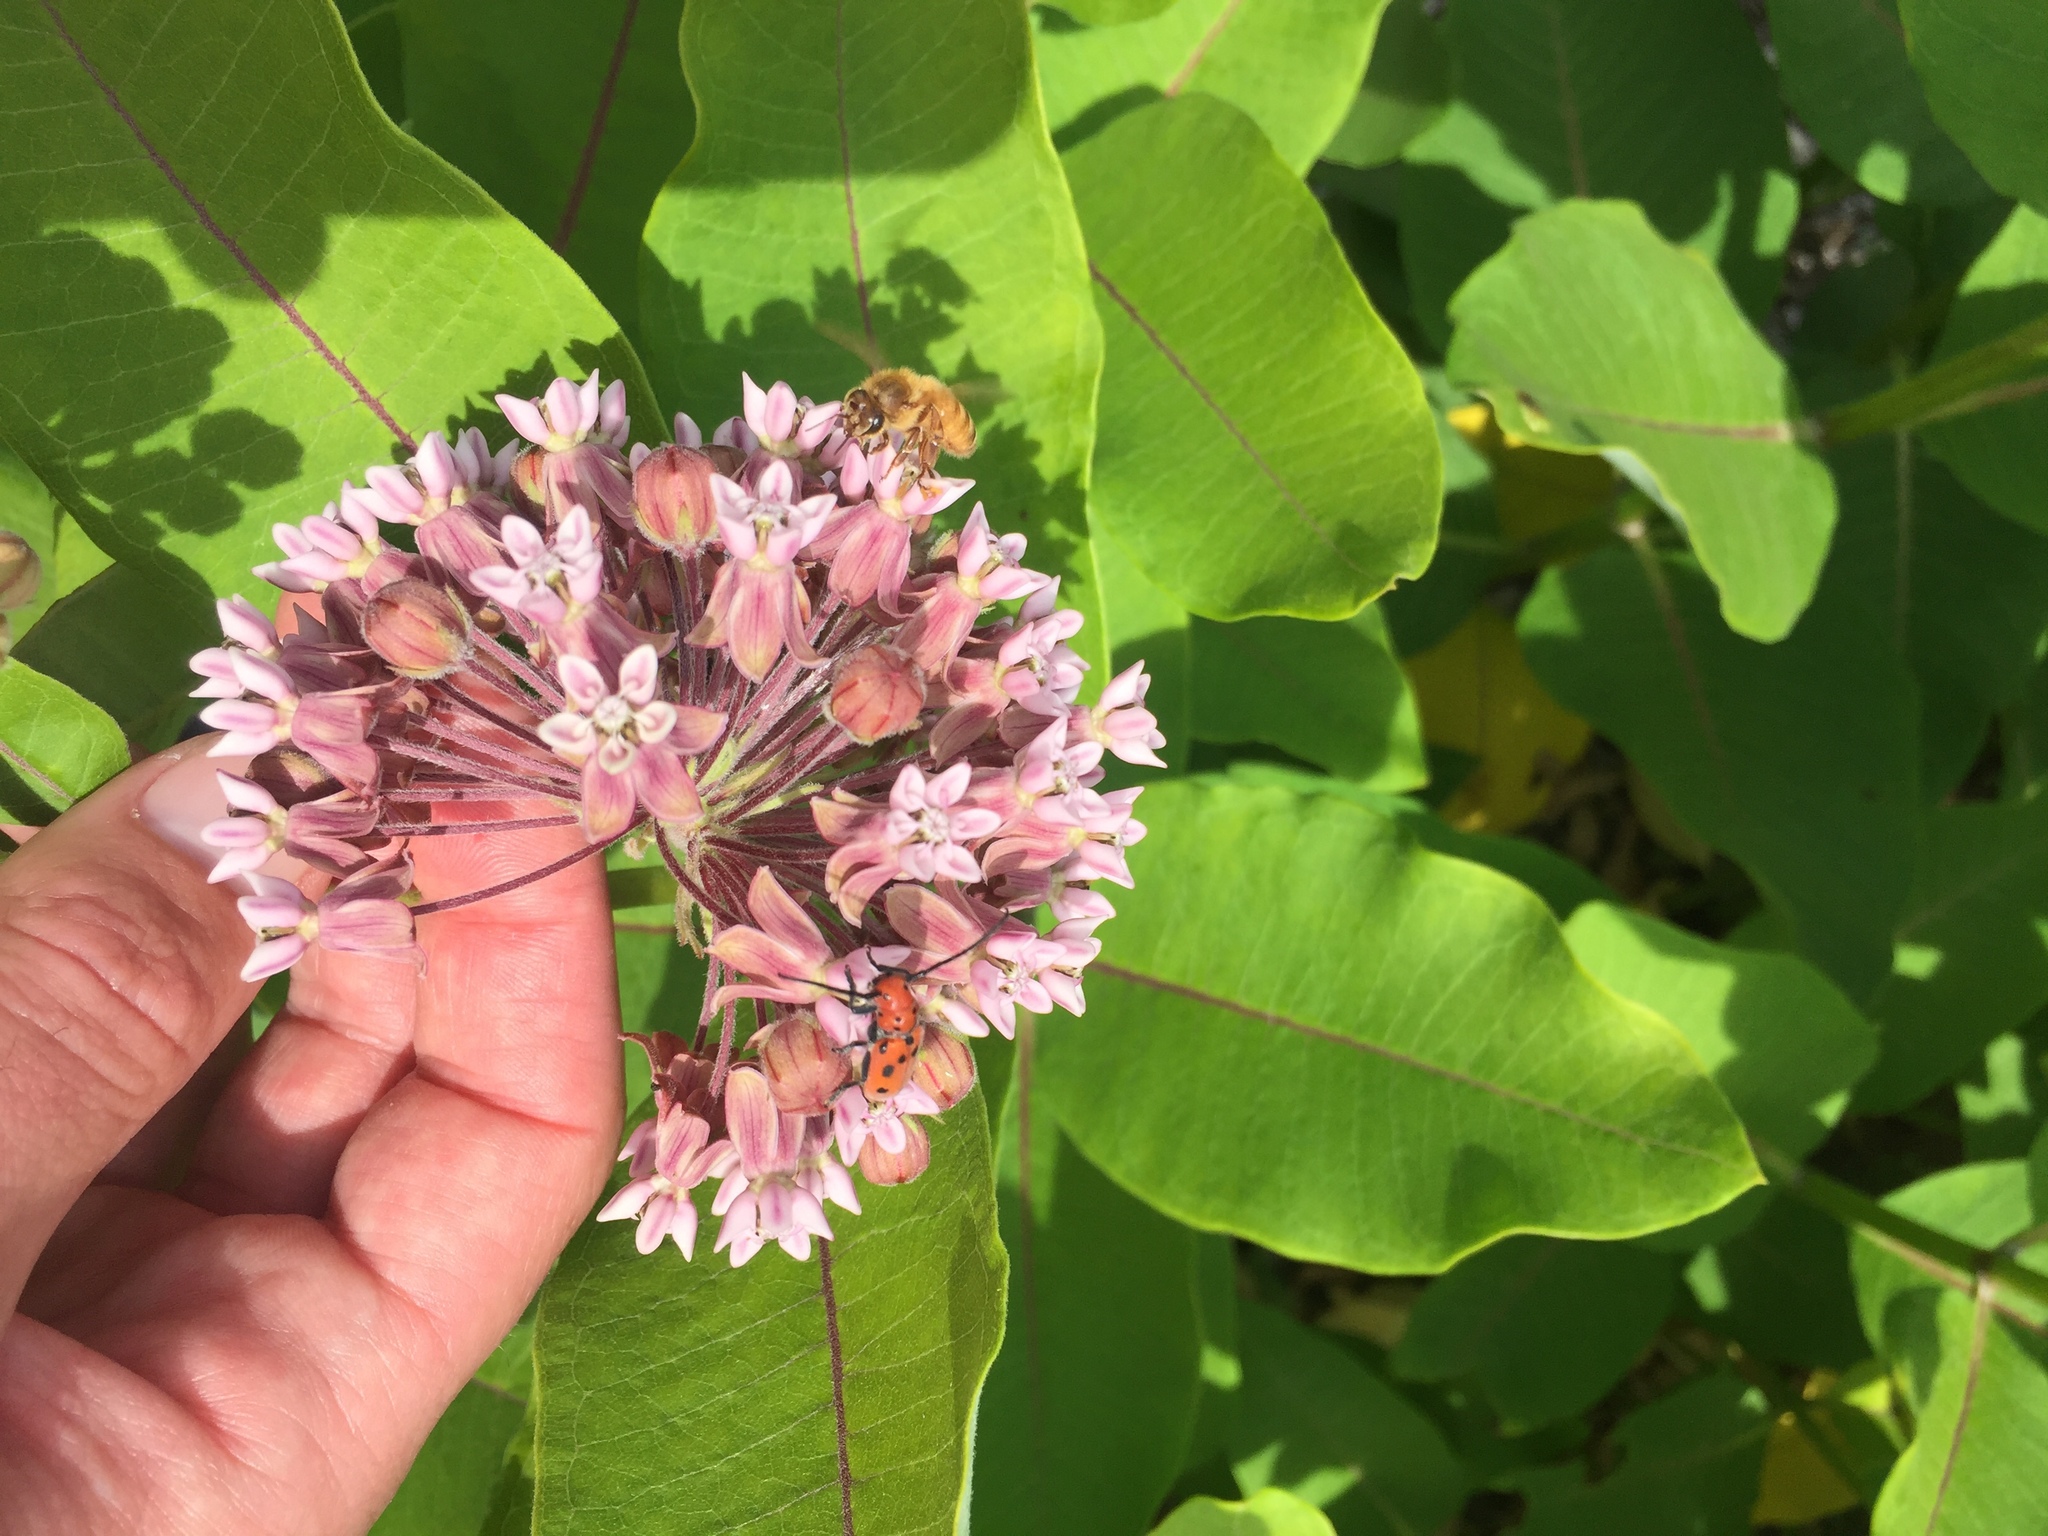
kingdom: Plantae
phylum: Tracheophyta
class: Magnoliopsida
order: Gentianales
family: Apocynaceae
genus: Asclepias
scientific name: Asclepias syriaca
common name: Common milkweed
